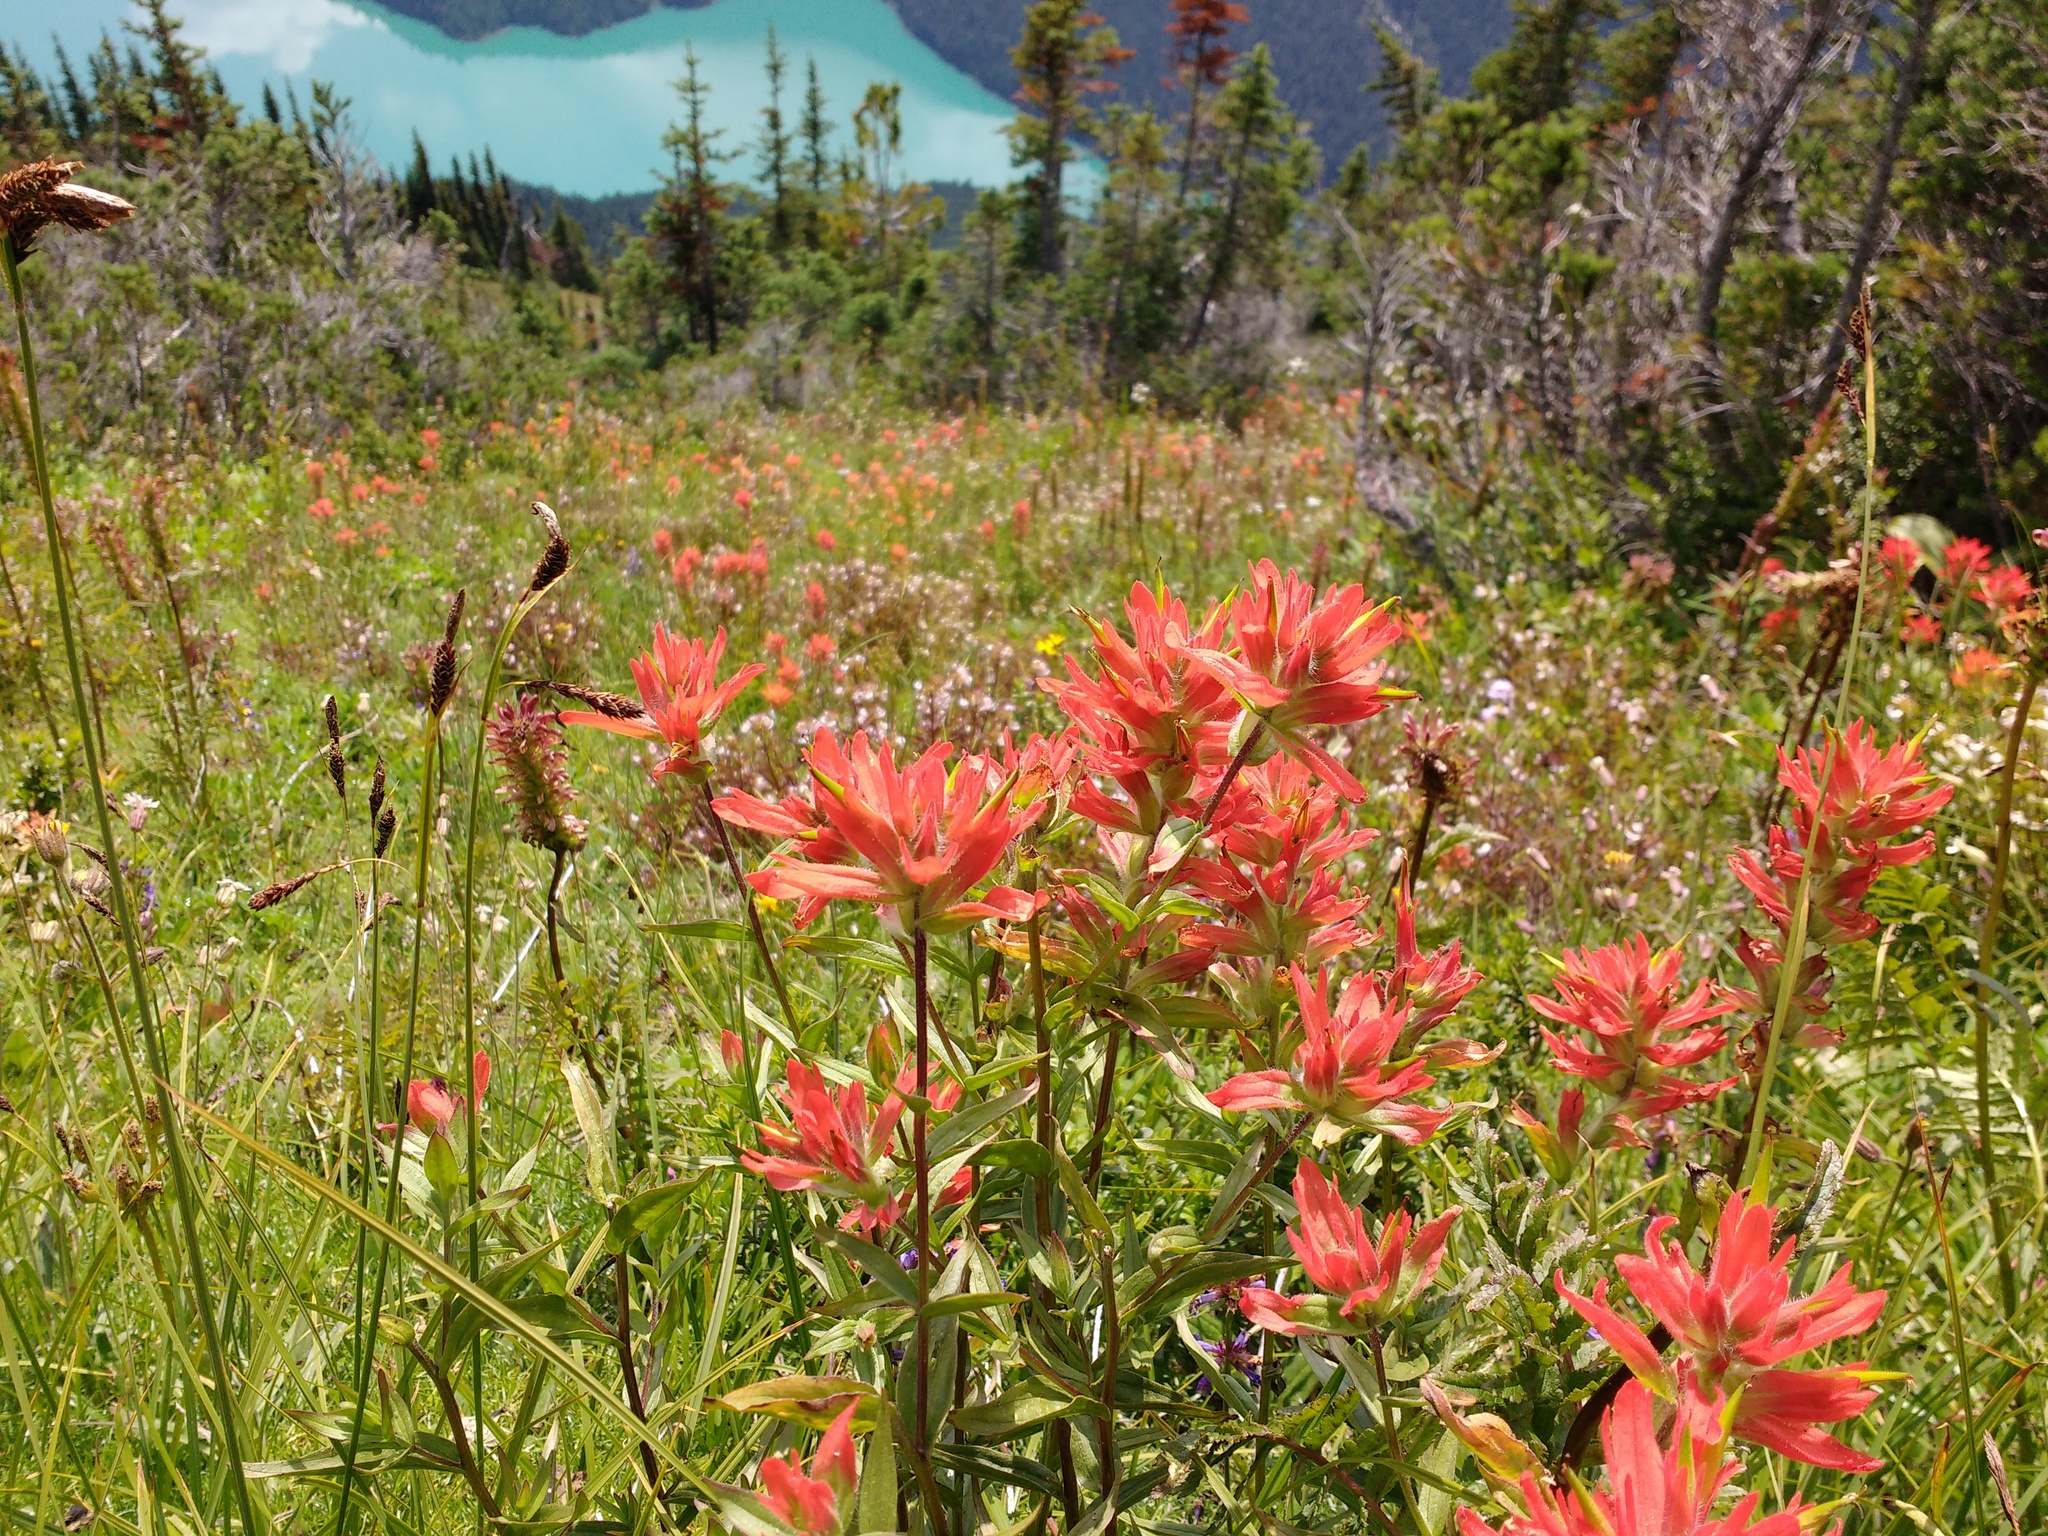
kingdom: Plantae
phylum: Tracheophyta
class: Magnoliopsida
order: Lamiales
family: Orobanchaceae
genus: Castilleja
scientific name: Castilleja miniata
